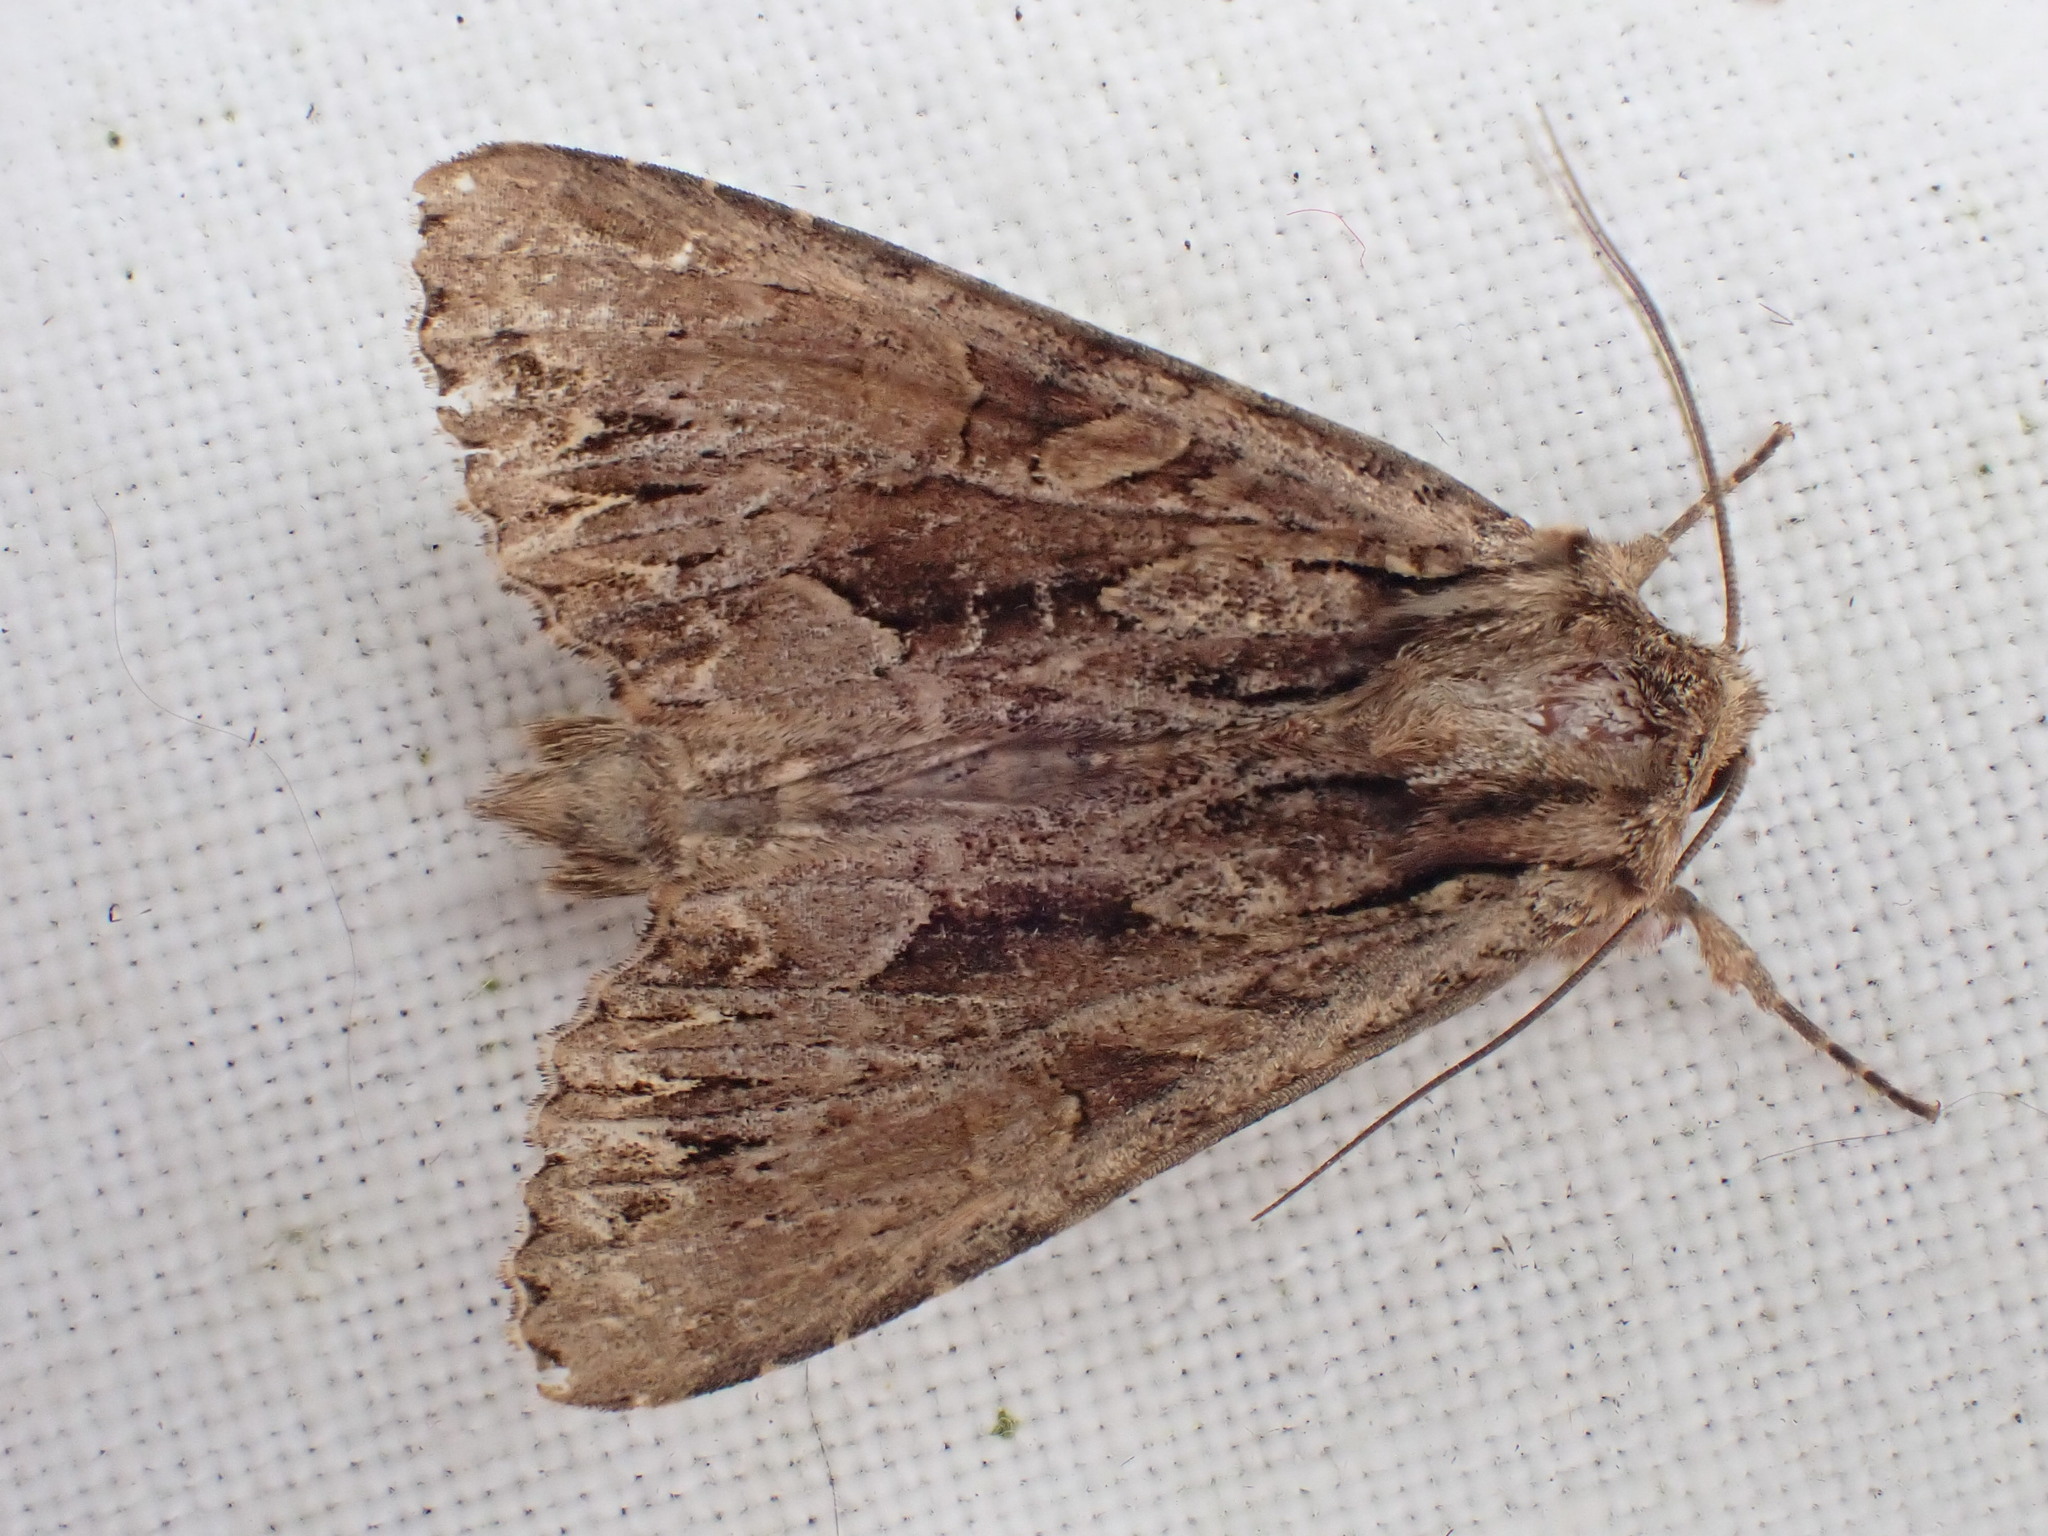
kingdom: Animalia
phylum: Arthropoda
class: Insecta
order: Lepidoptera
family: Noctuidae
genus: Apamea
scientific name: Apamea monoglypha
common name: Dark arches
